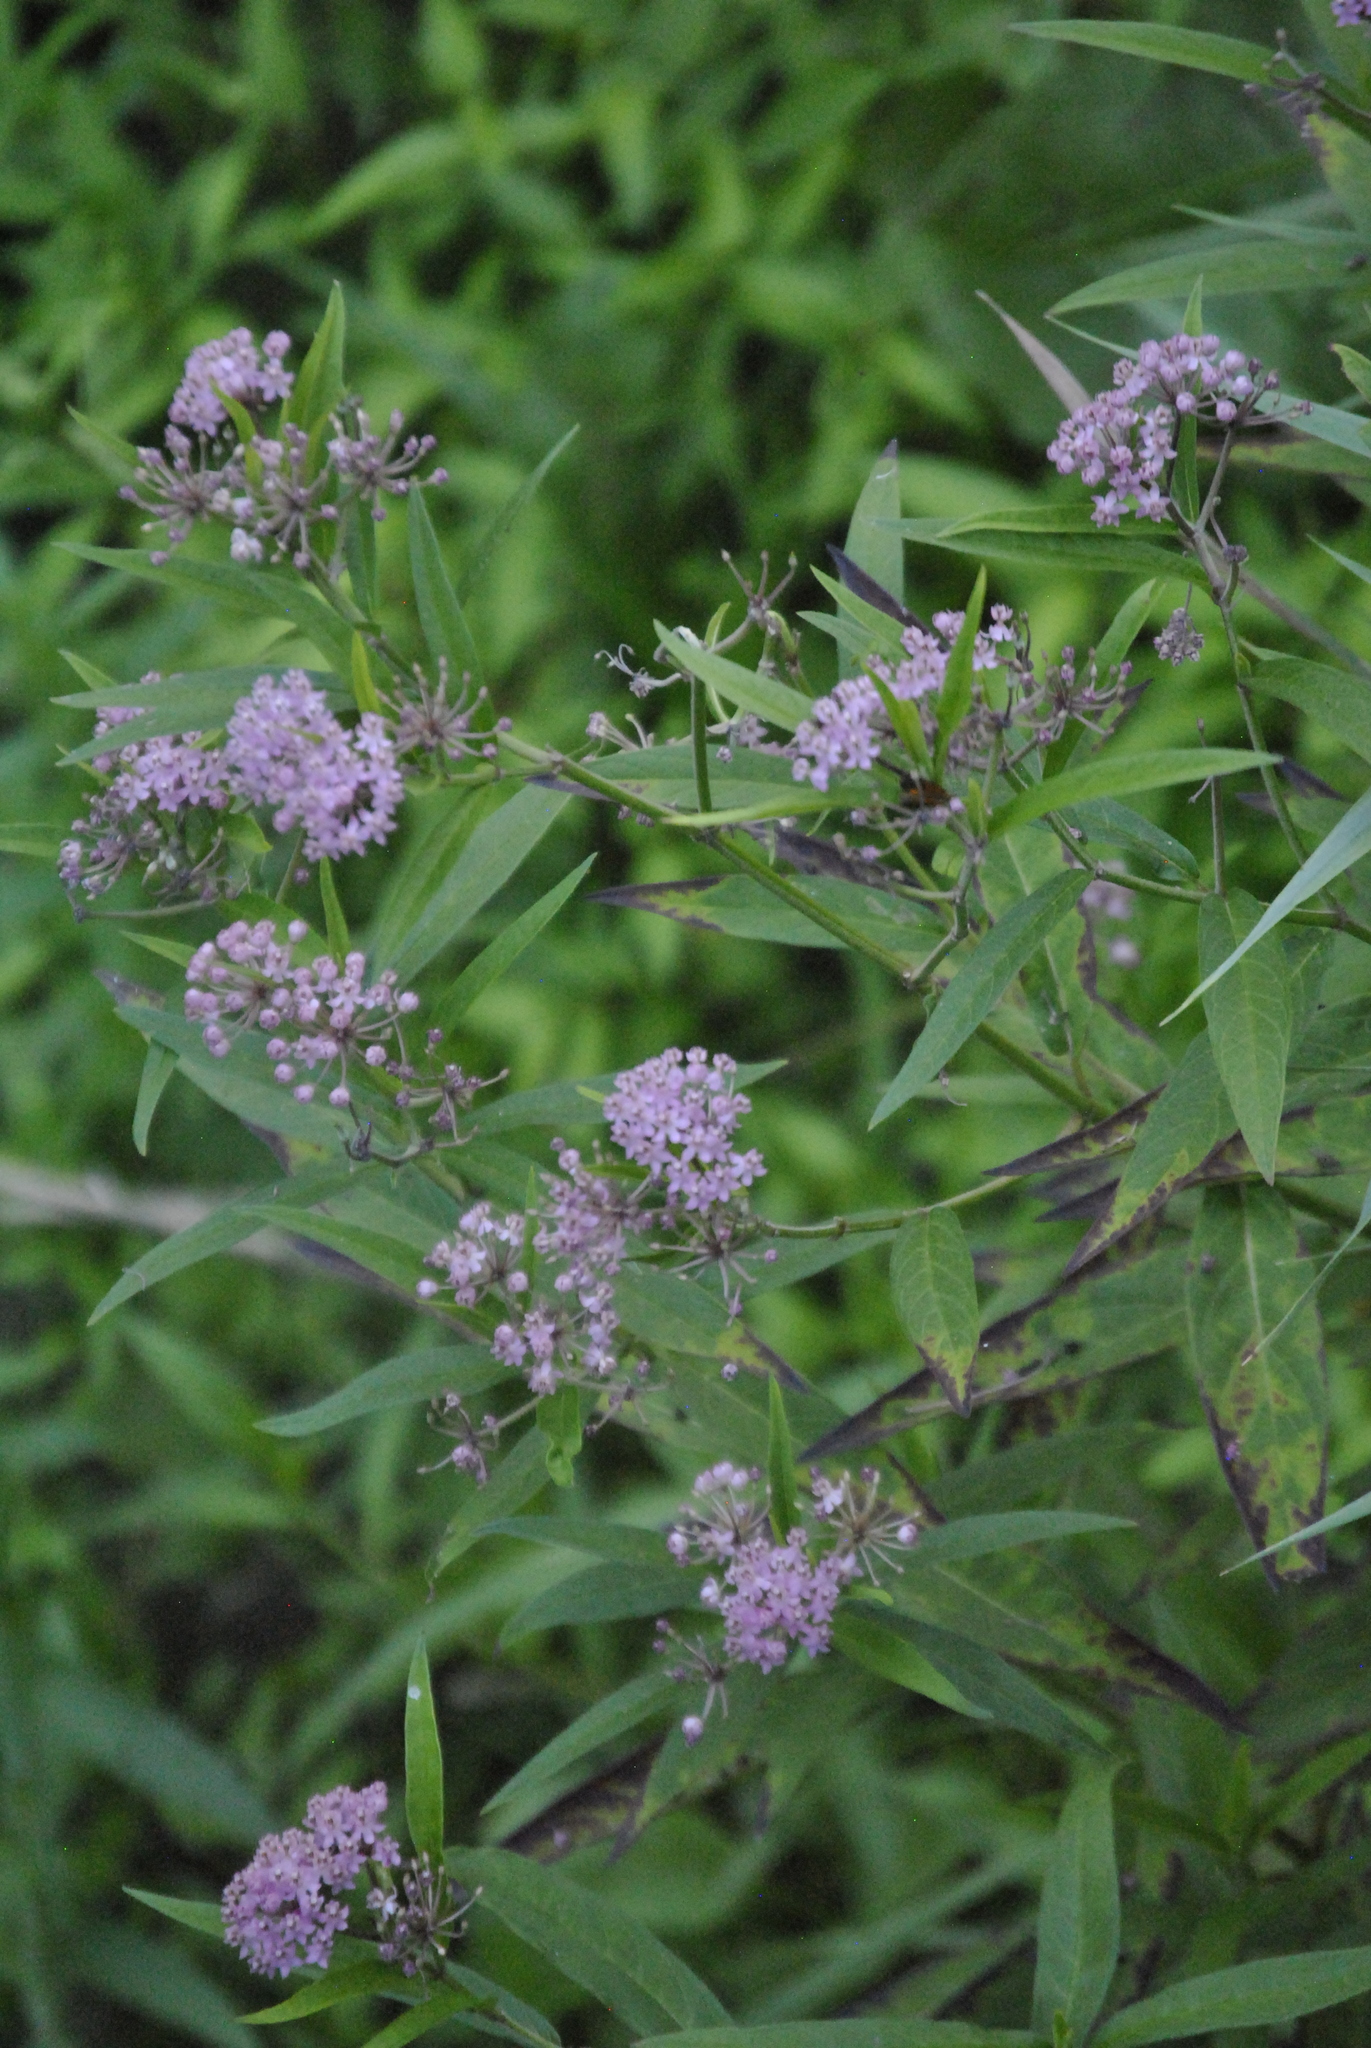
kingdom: Plantae
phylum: Tracheophyta
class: Magnoliopsida
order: Gentianales
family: Apocynaceae
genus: Asclepias
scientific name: Asclepias incarnata
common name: Swamp milkweed
